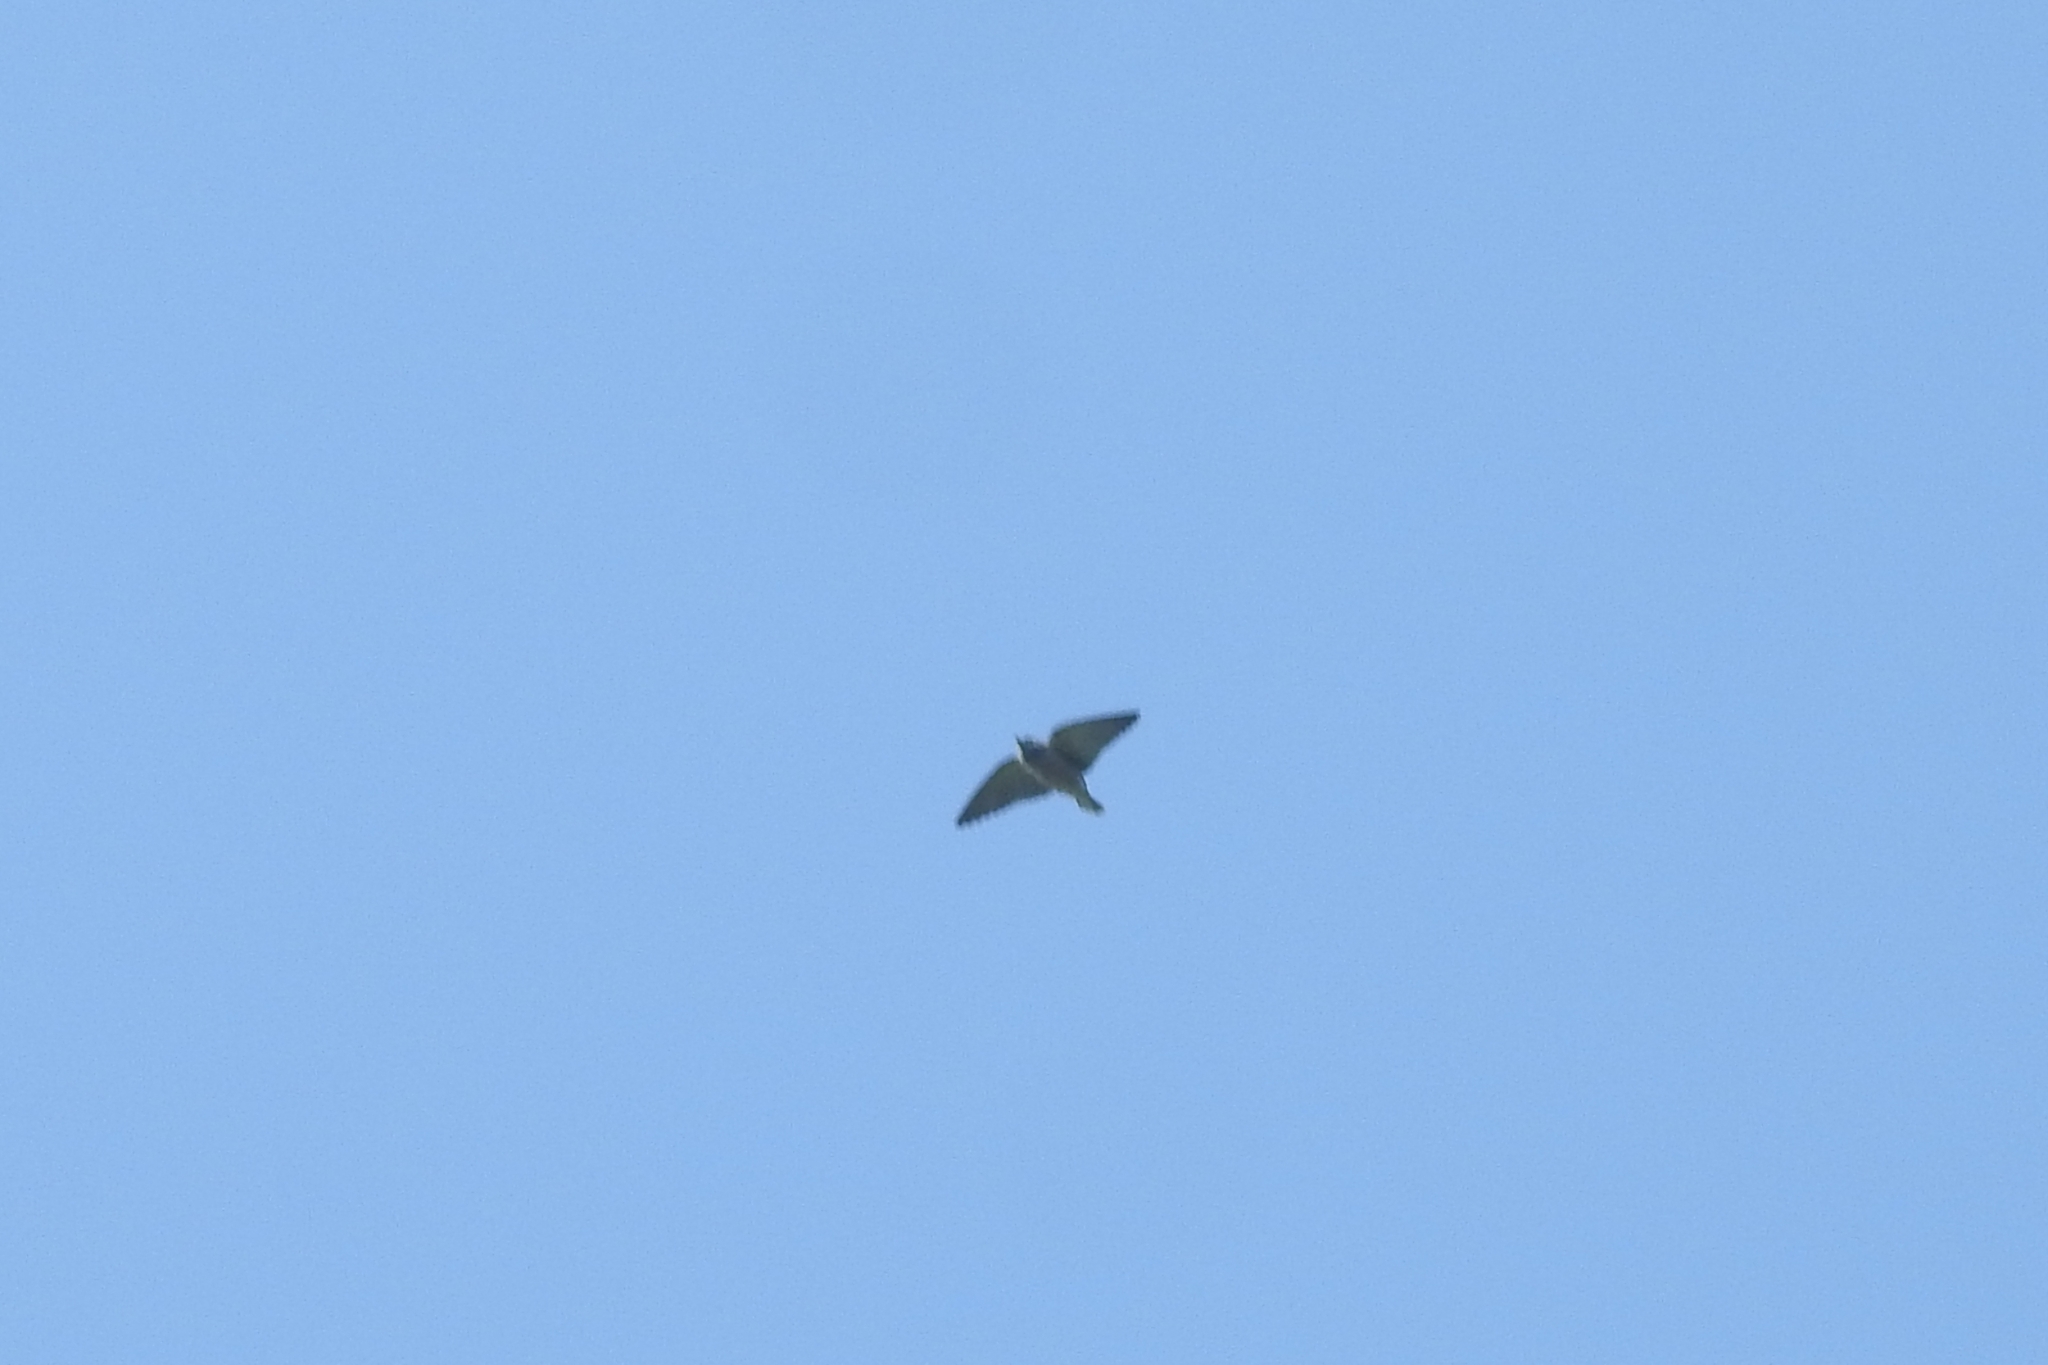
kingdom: Animalia
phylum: Chordata
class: Aves
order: Passeriformes
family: Artamidae
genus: Artamus
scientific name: Artamus fuscus
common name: Ashy woodswallow
